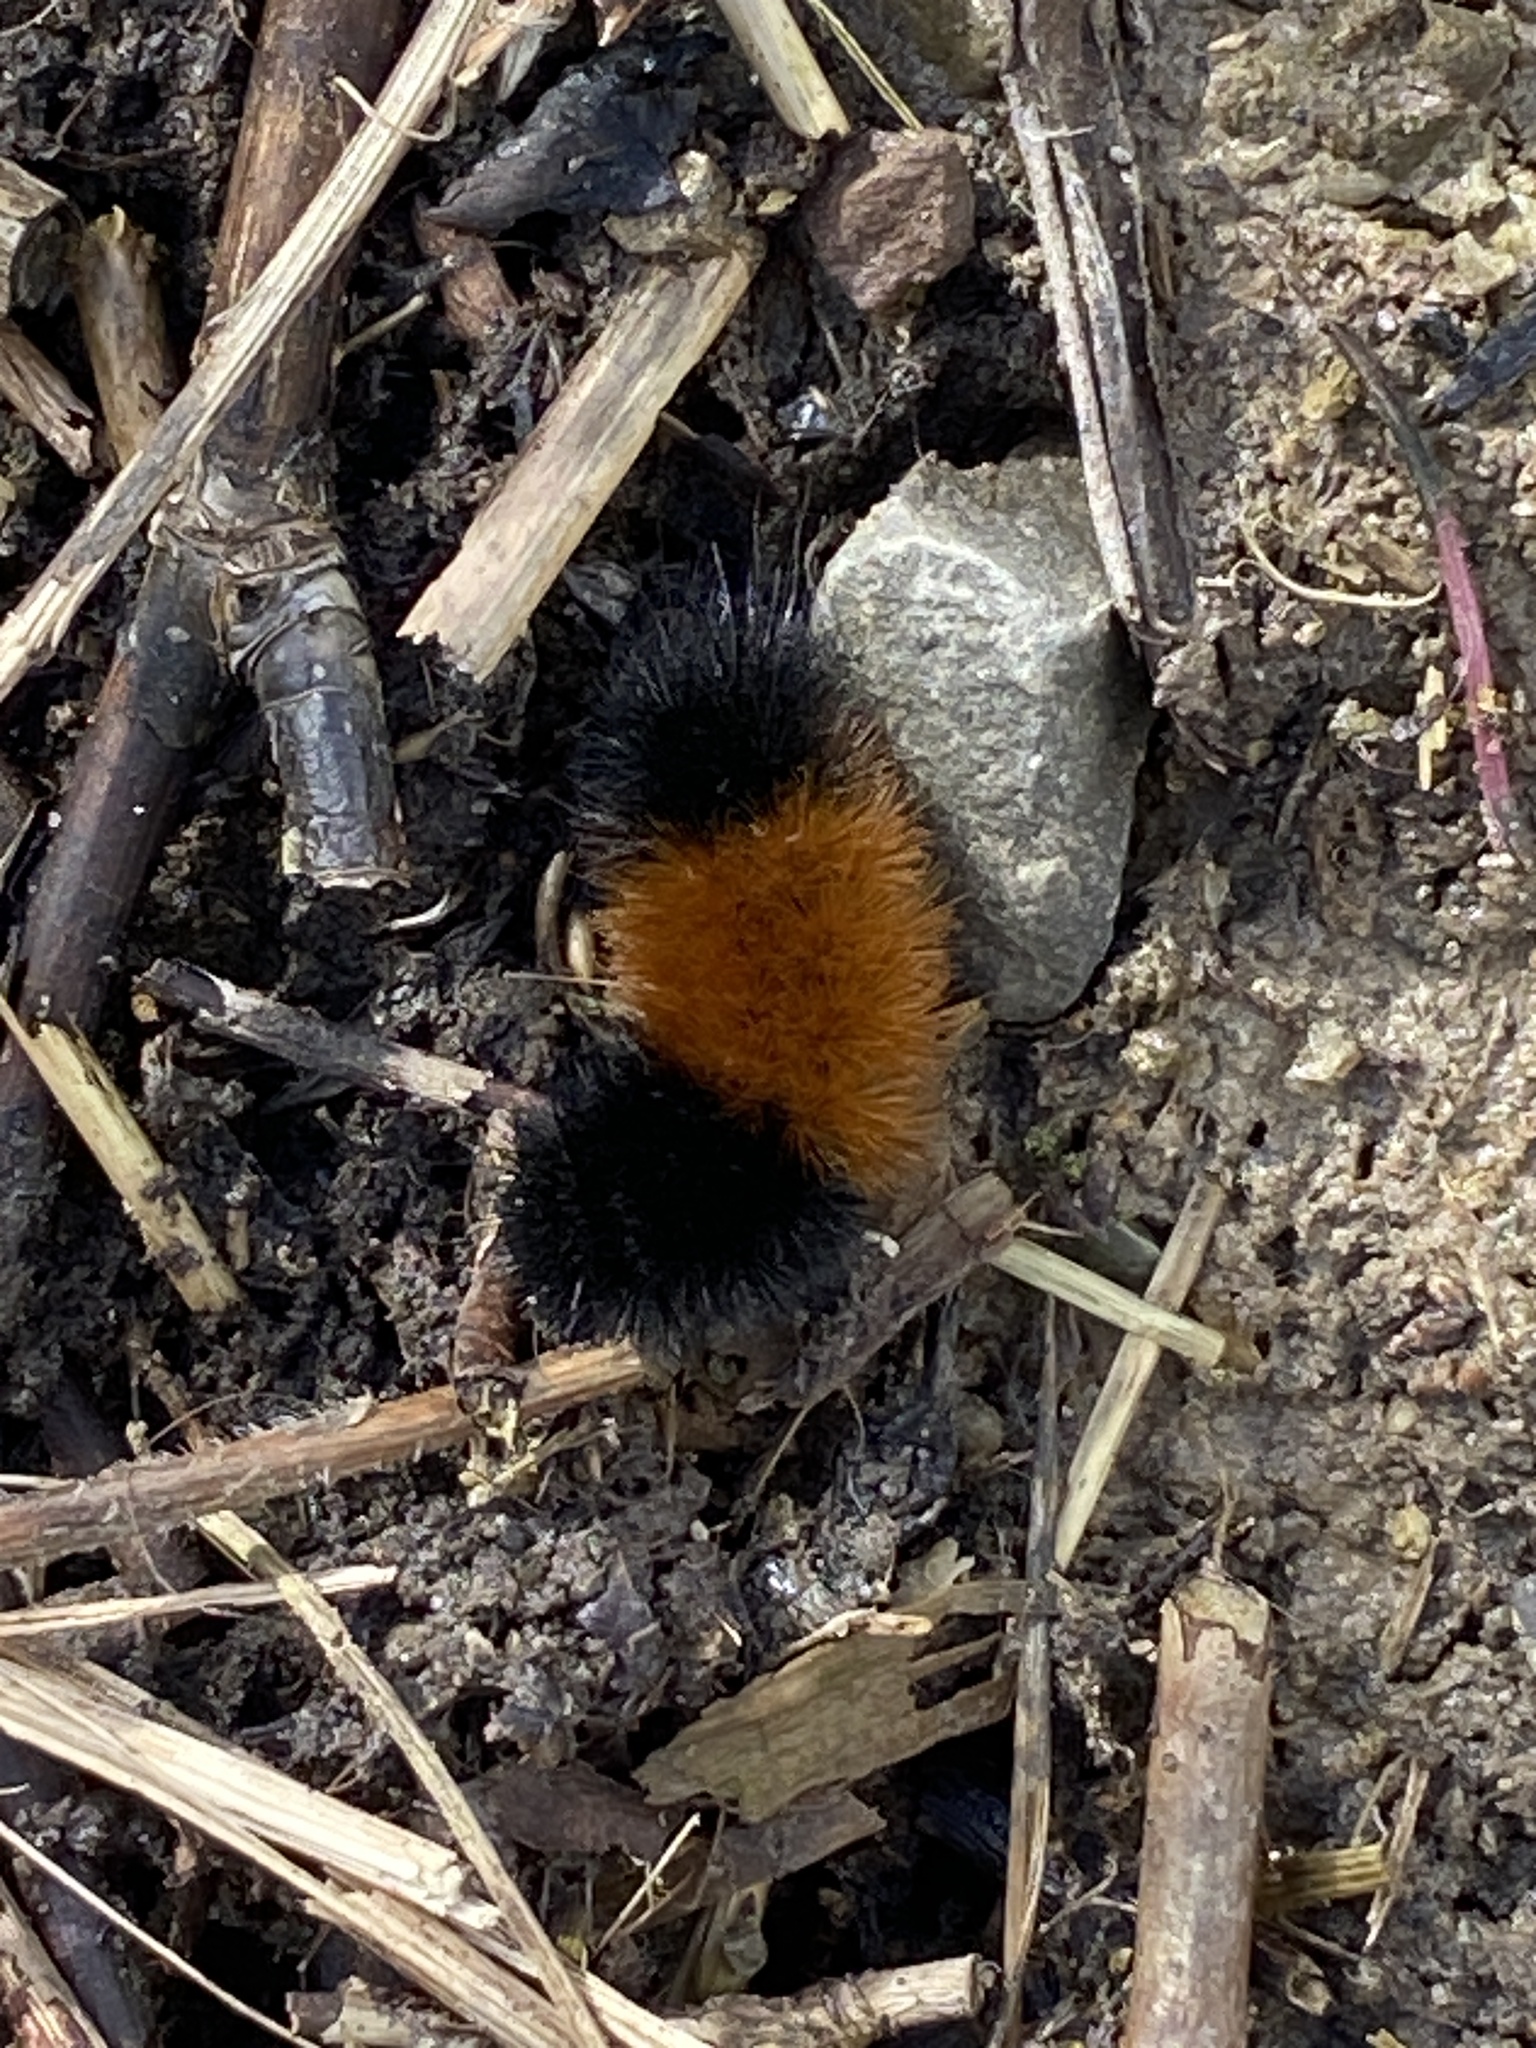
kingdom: Animalia
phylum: Arthropoda
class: Insecta
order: Lepidoptera
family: Erebidae
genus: Pyrrharctia
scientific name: Pyrrharctia isabella
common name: Isabella tiger moth
